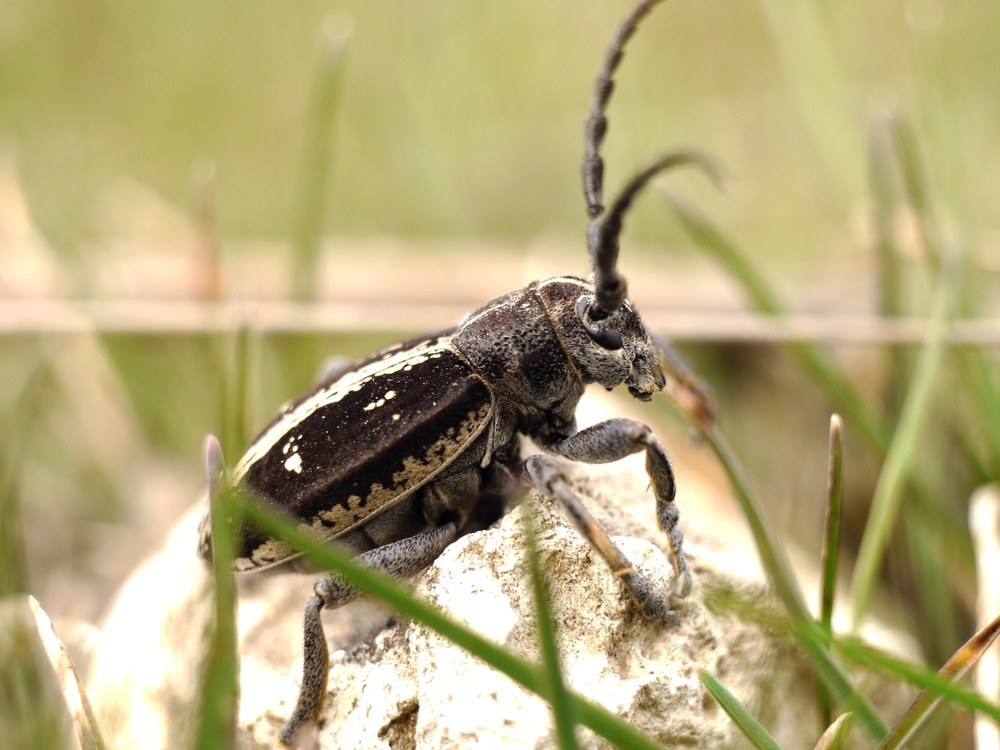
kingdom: Animalia
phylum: Arthropoda
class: Insecta
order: Coleoptera
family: Cerambycidae
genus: Dorcadion
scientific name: Dorcadion equestre
